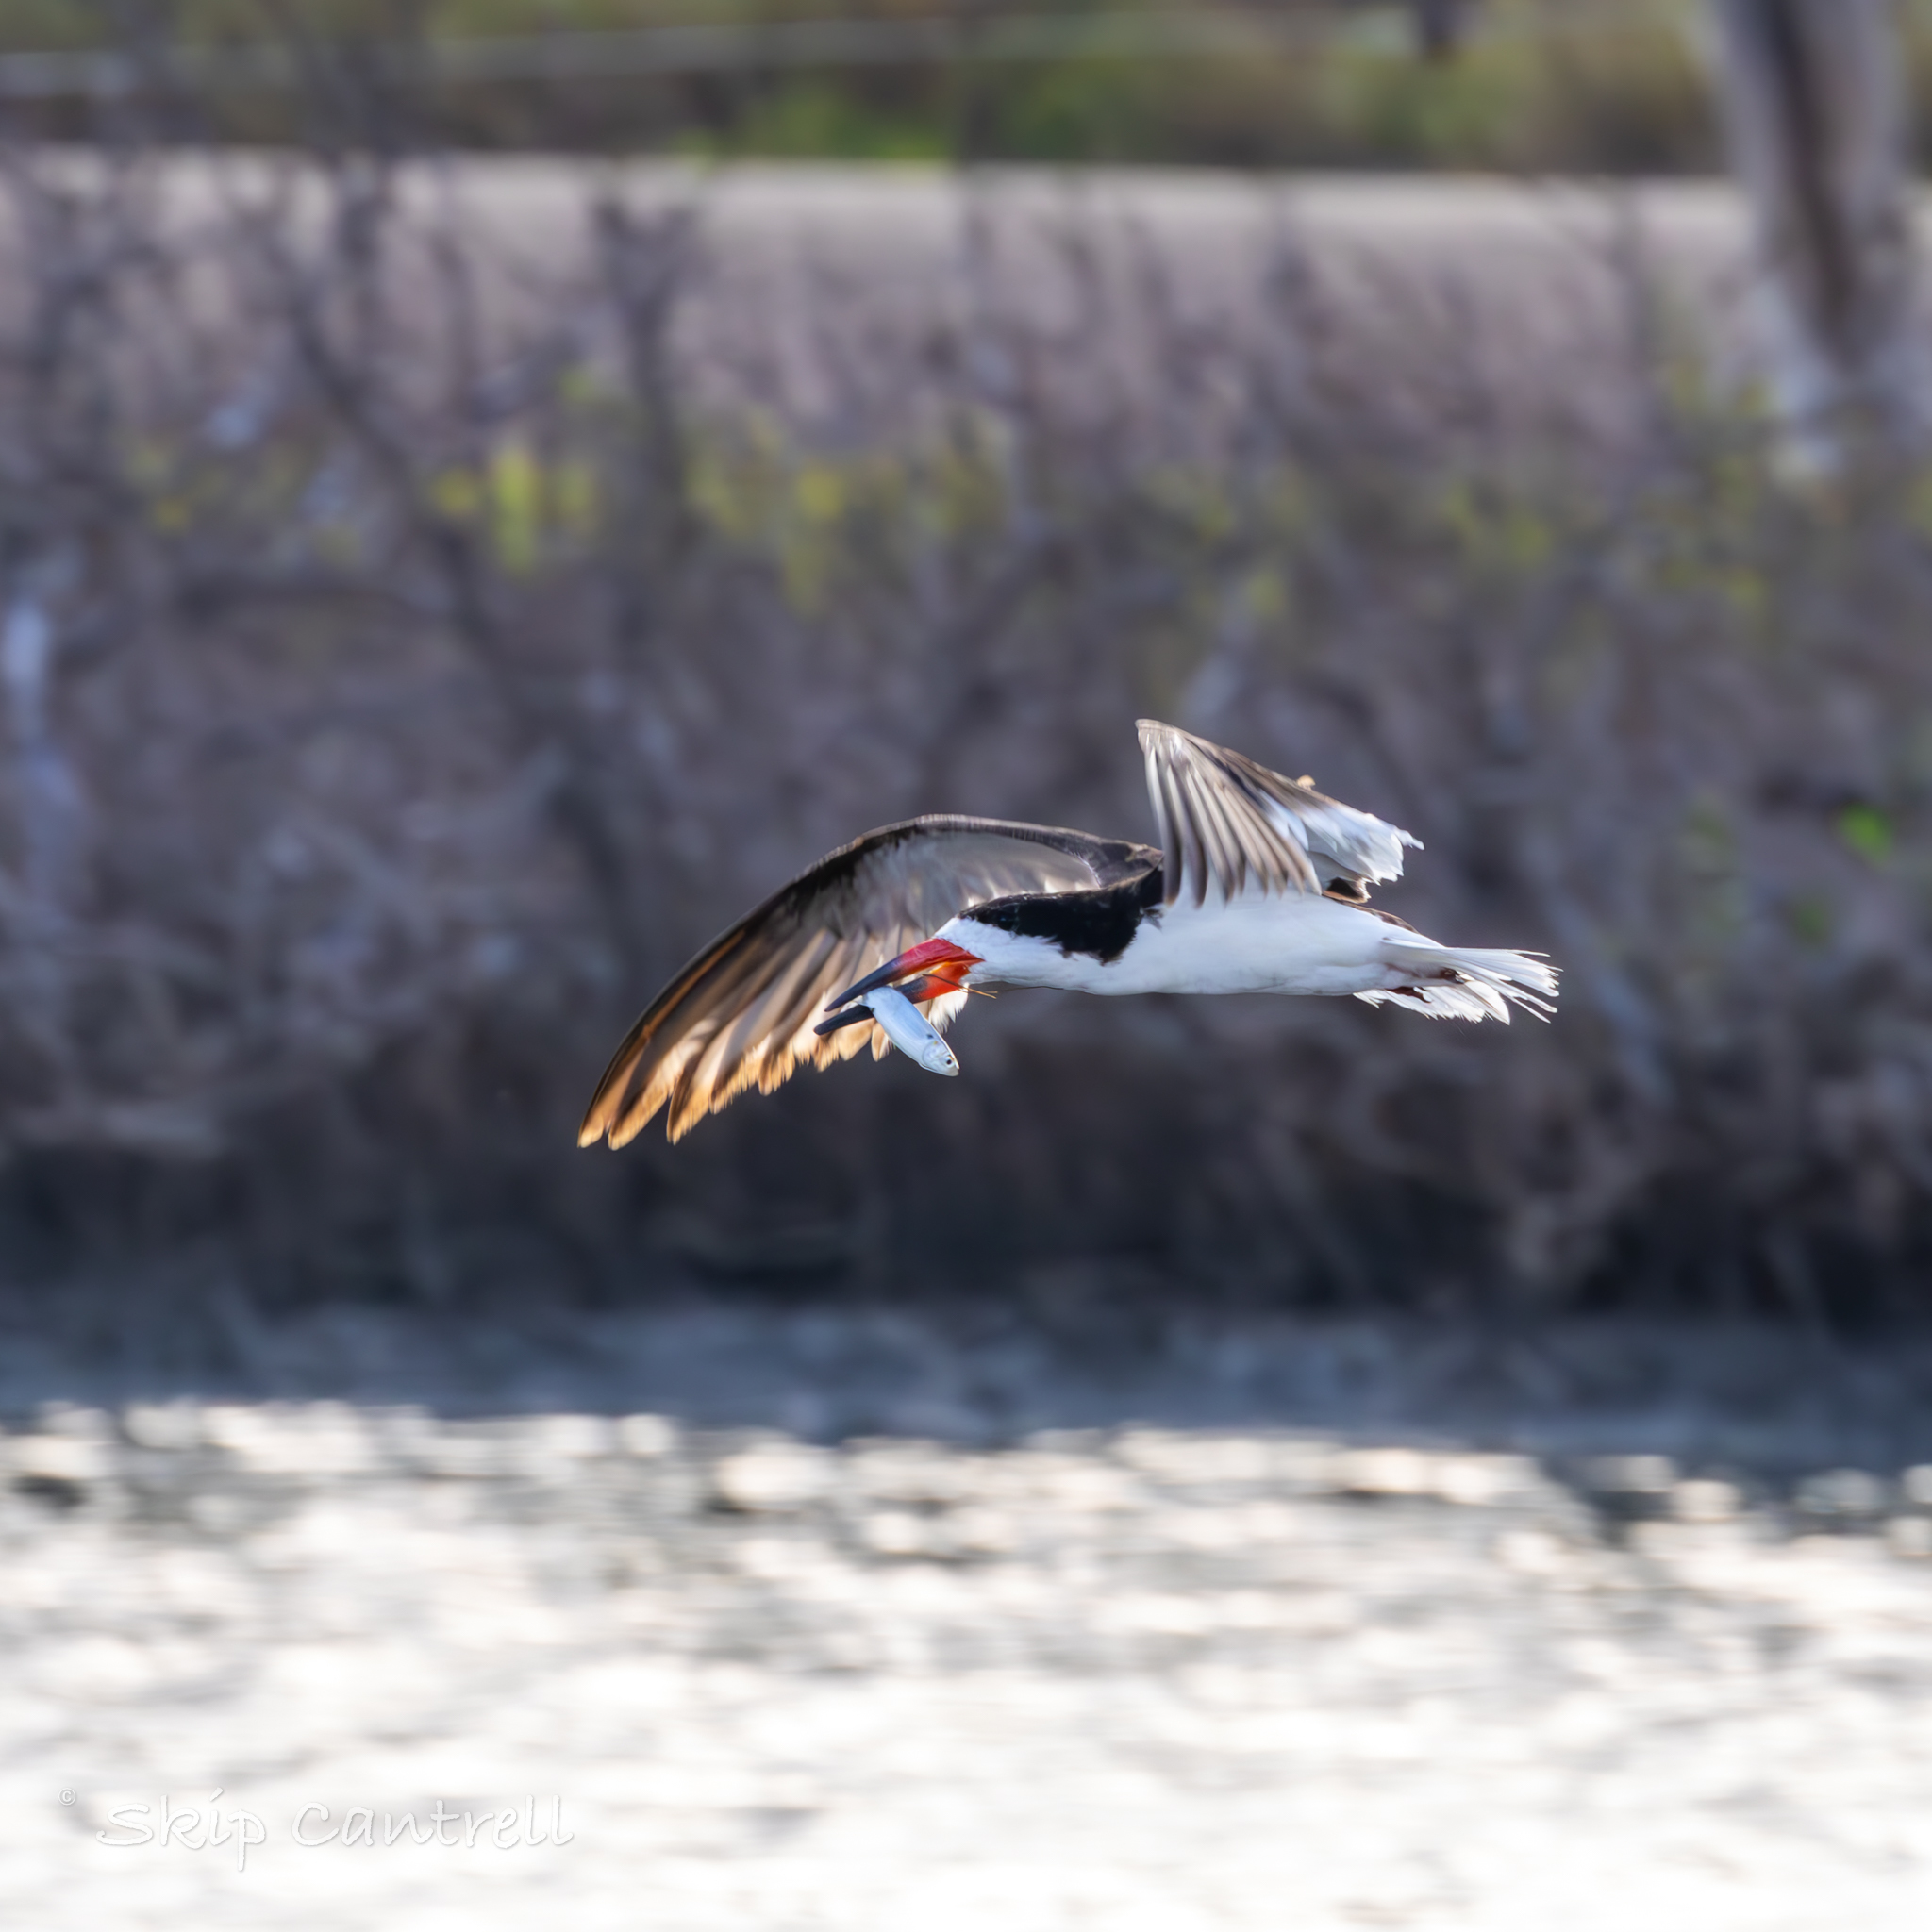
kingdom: Animalia
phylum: Chordata
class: Aves
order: Charadriiformes
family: Laridae
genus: Rynchops
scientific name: Rynchops niger
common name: Black skimmer
